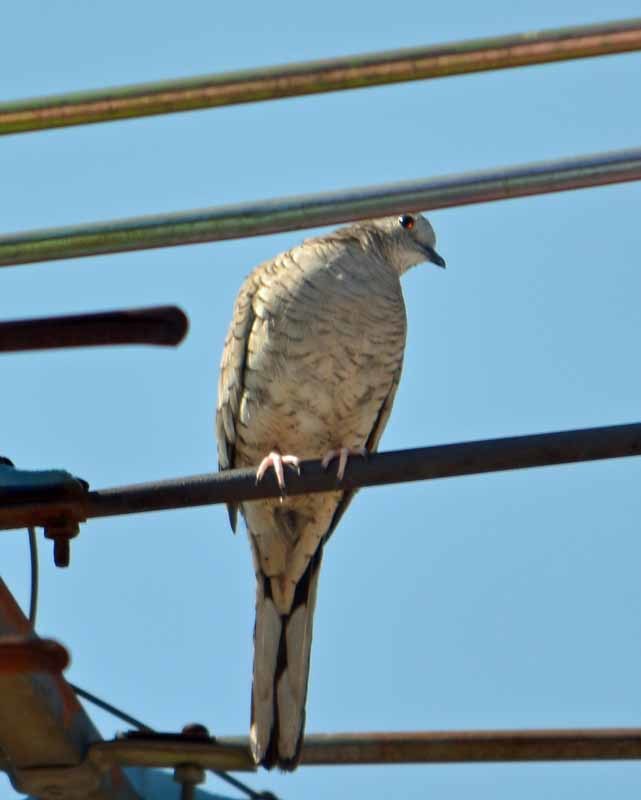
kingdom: Animalia
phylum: Chordata
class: Aves
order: Columbiformes
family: Columbidae
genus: Columbina
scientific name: Columbina inca
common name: Inca dove
